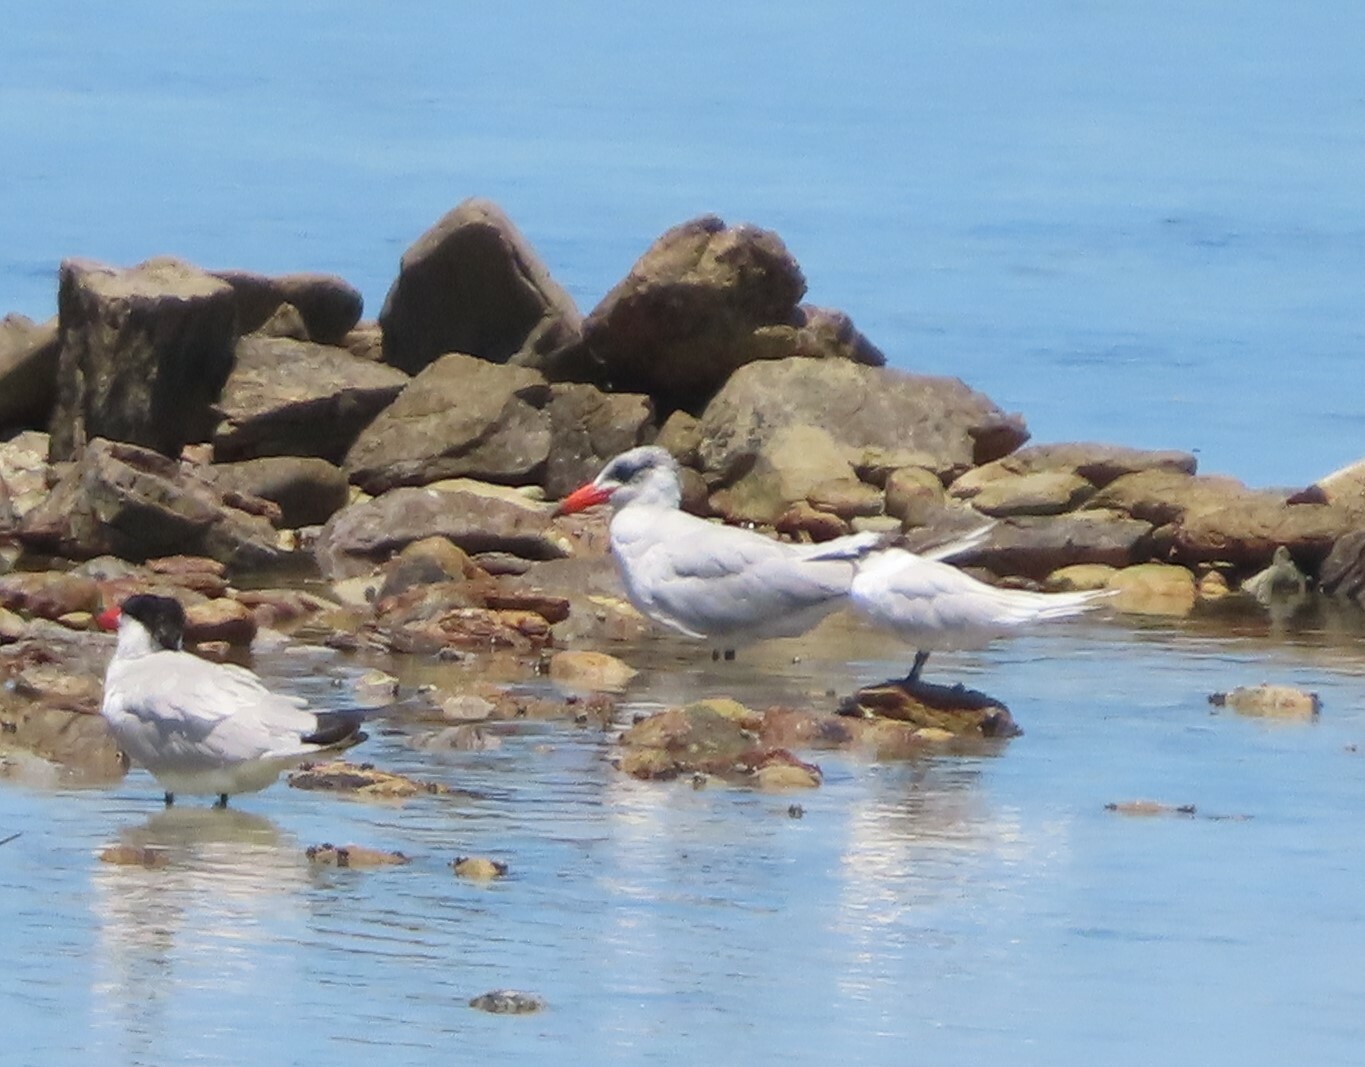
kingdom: Animalia
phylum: Chordata
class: Aves
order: Charadriiformes
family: Laridae
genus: Hydroprogne
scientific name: Hydroprogne caspia
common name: Caspian tern
